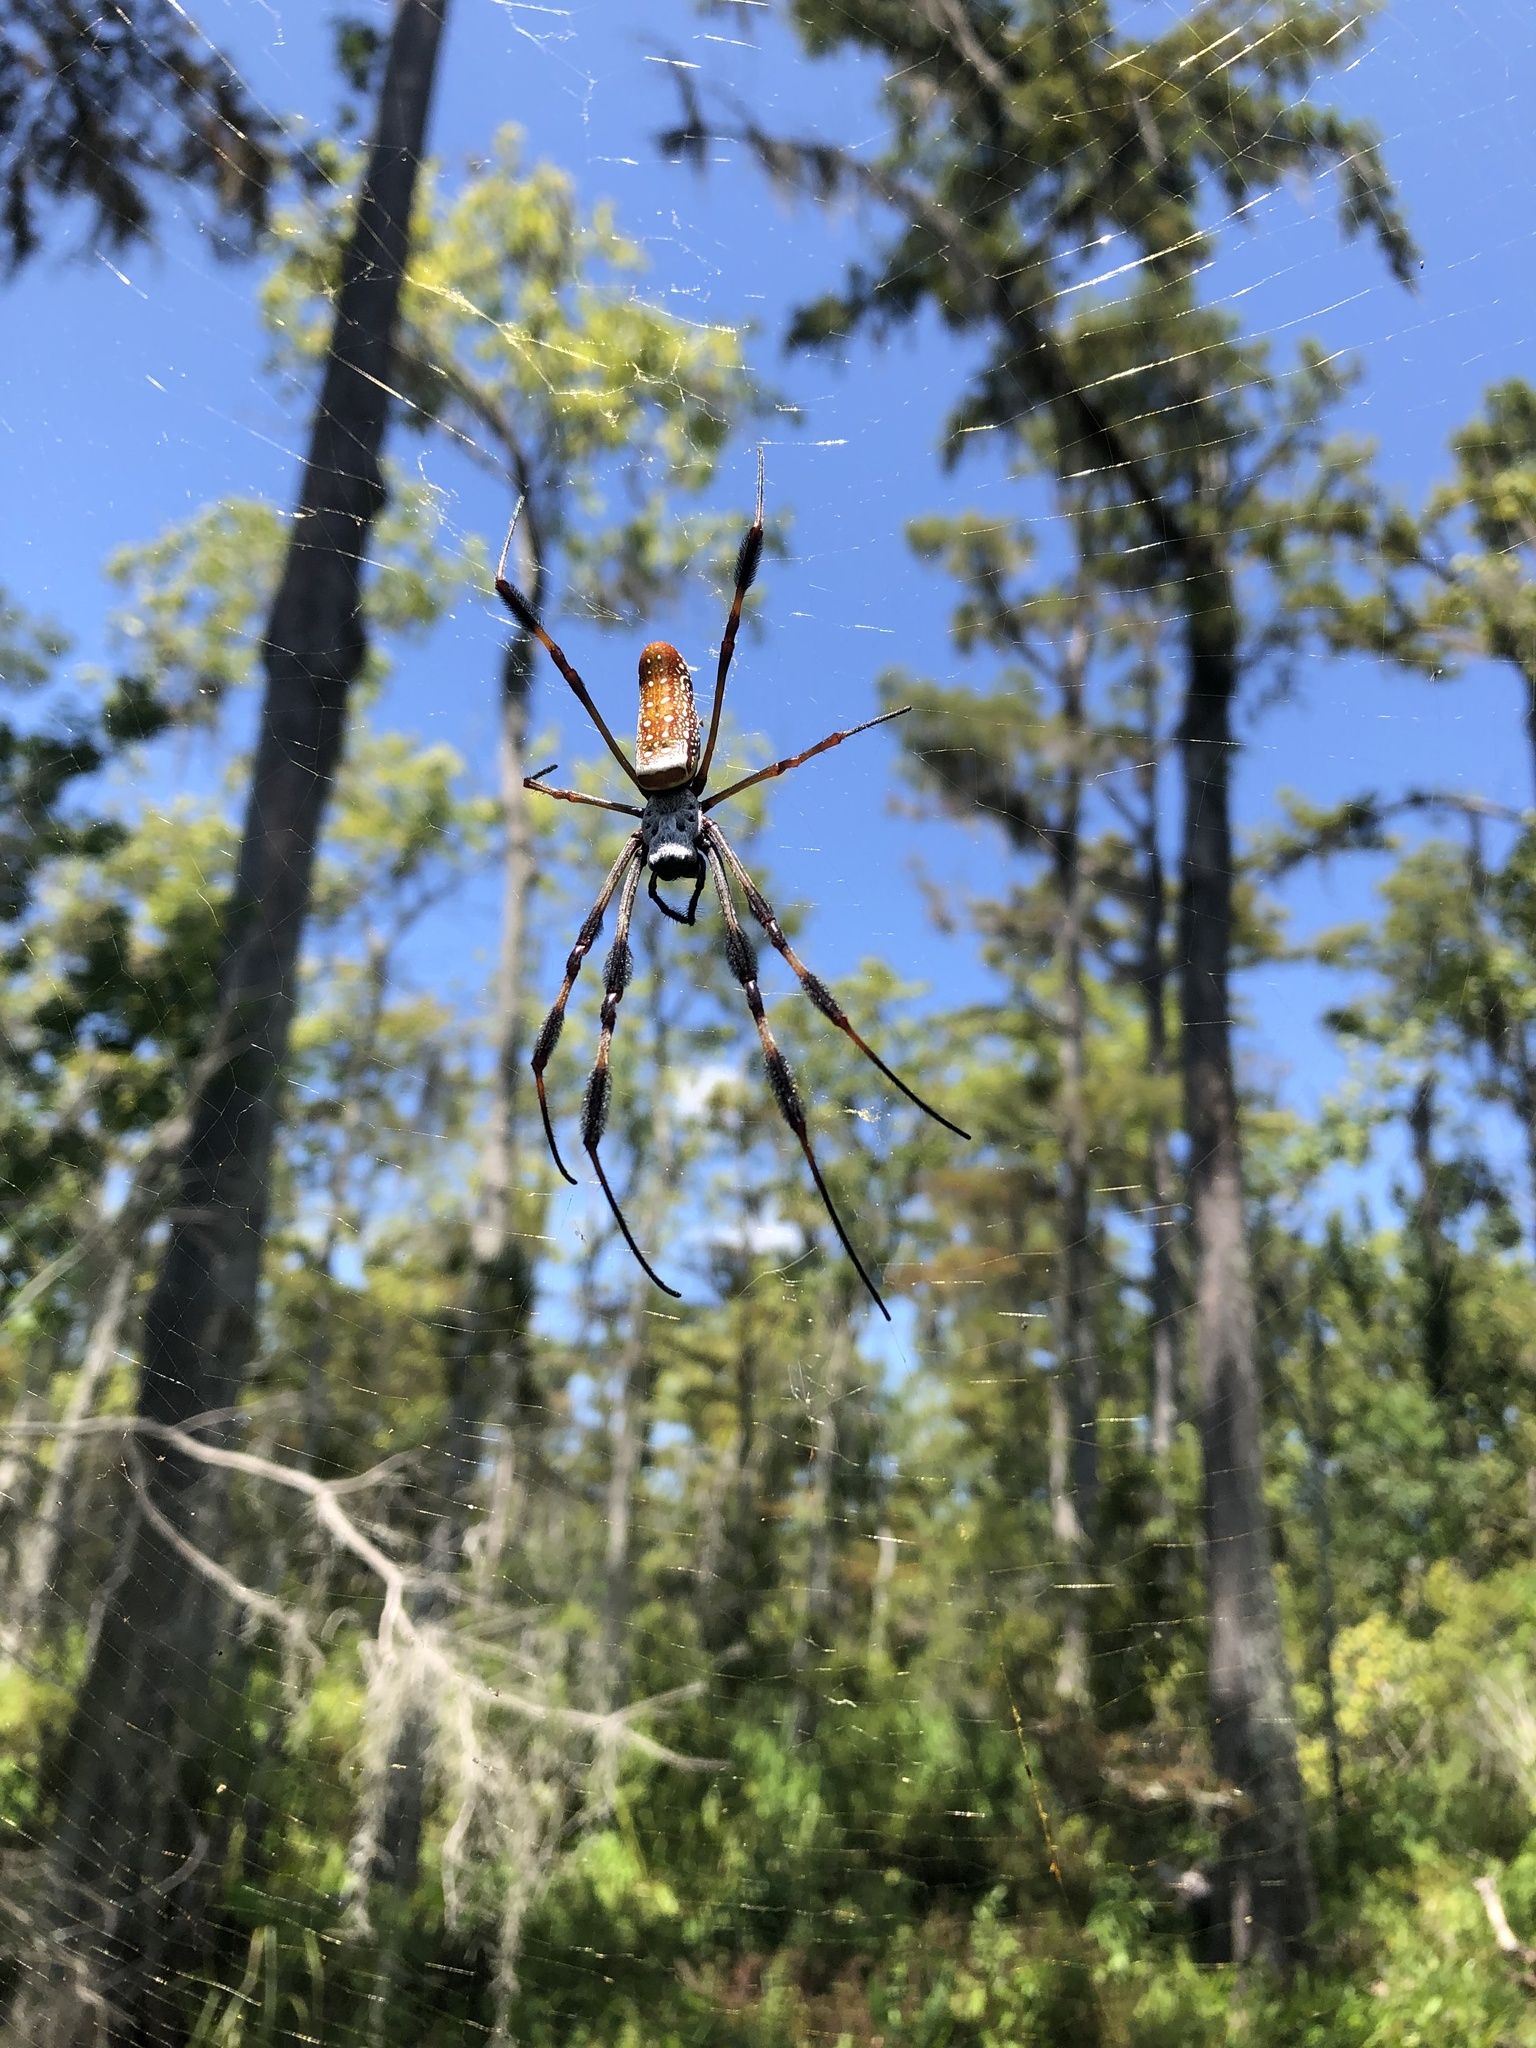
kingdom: Animalia
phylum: Arthropoda
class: Arachnida
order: Araneae
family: Araneidae
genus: Trichonephila
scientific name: Trichonephila clavipes
